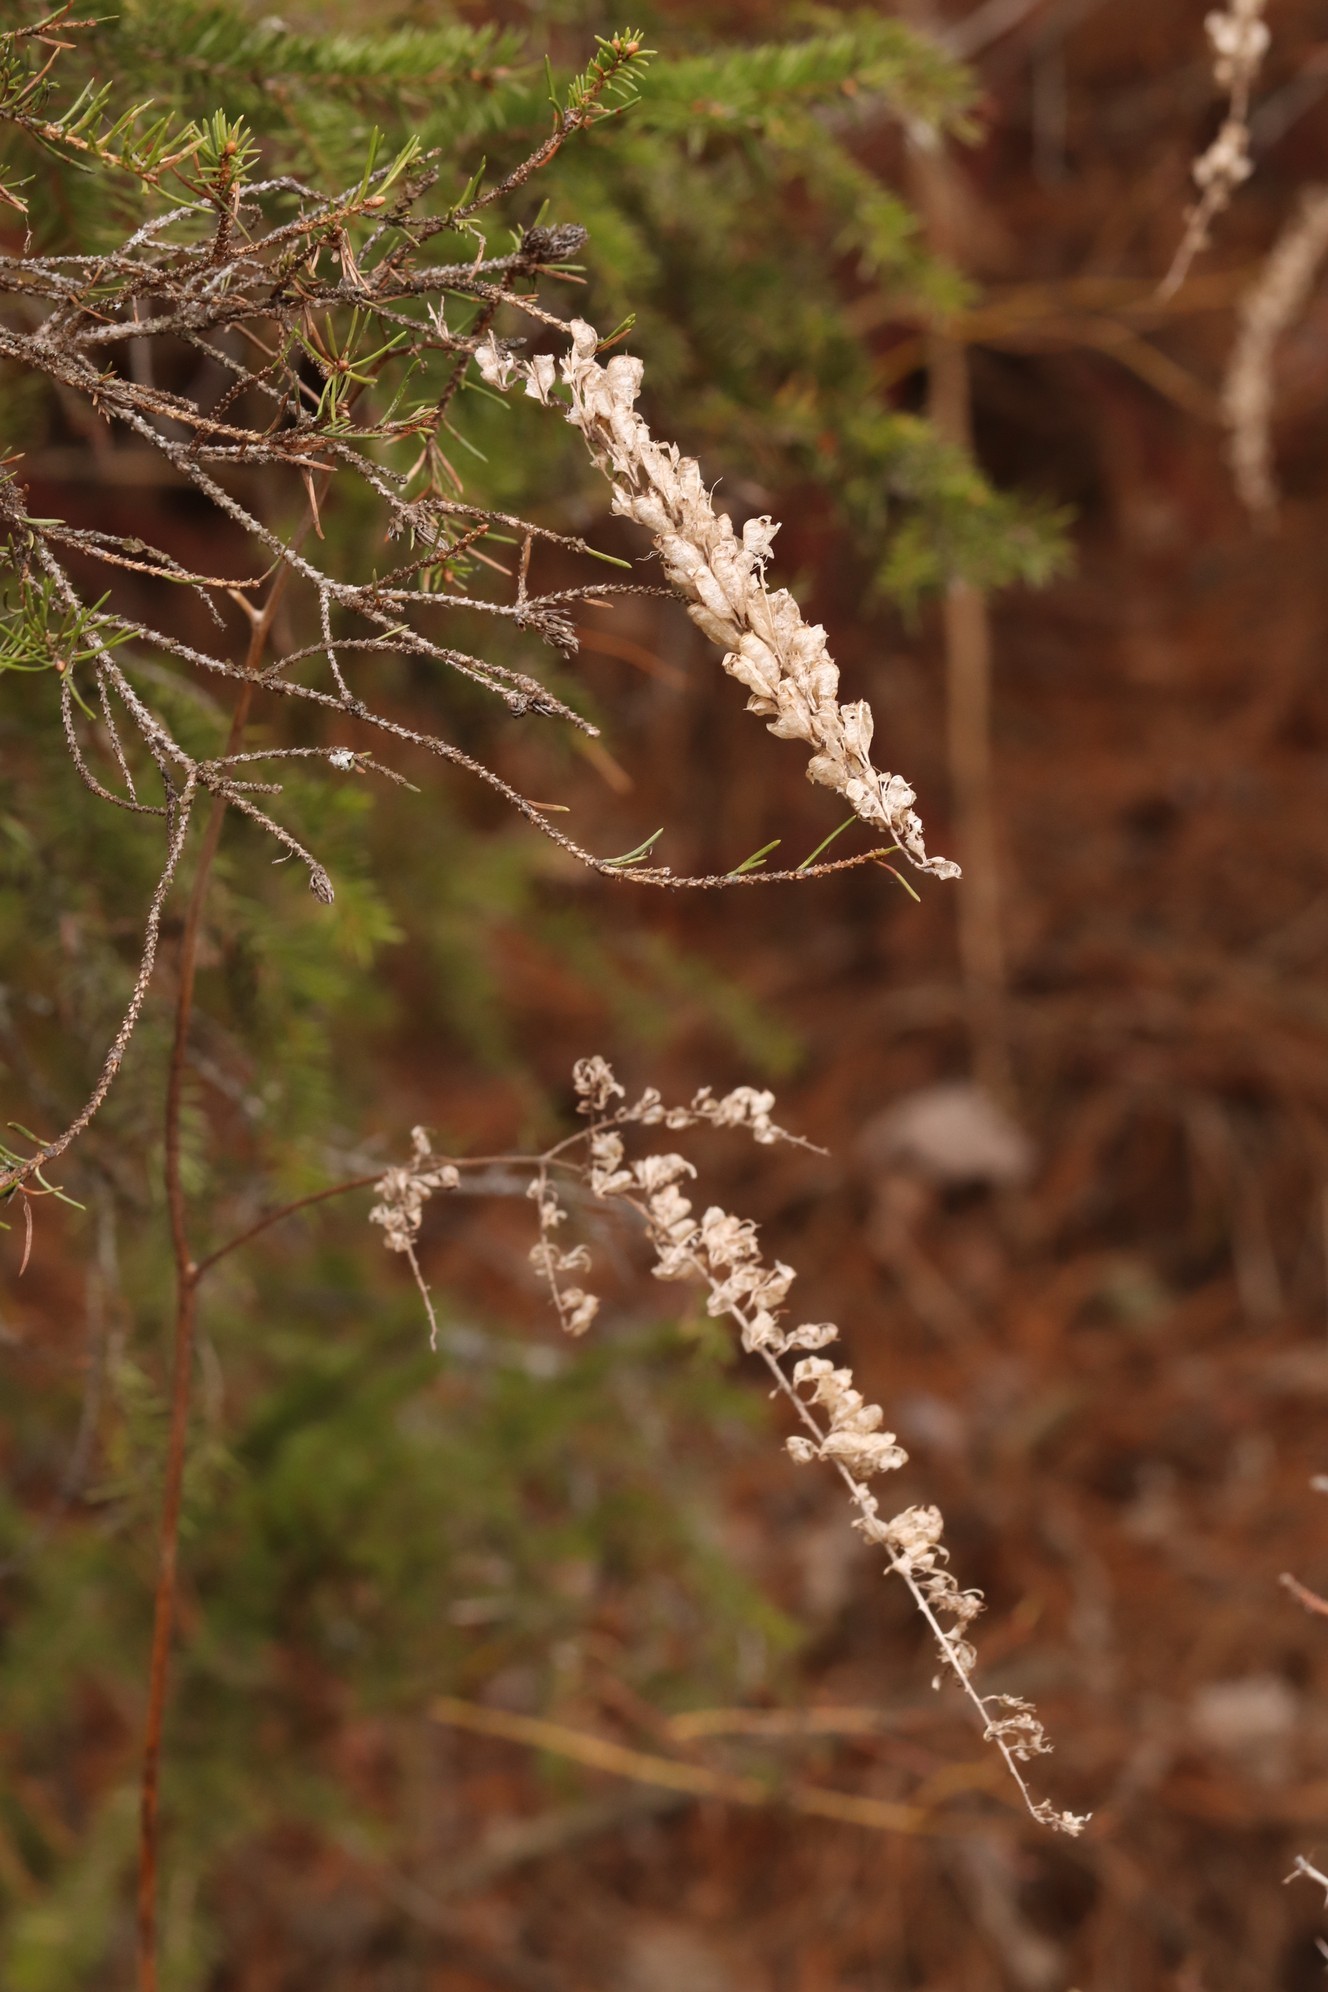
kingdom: Plantae
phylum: Tracheophyta
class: Magnoliopsida
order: Ranunculales
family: Ranunculaceae
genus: Actaea
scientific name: Actaea cimicifuga
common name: Chinese cimicifuga
